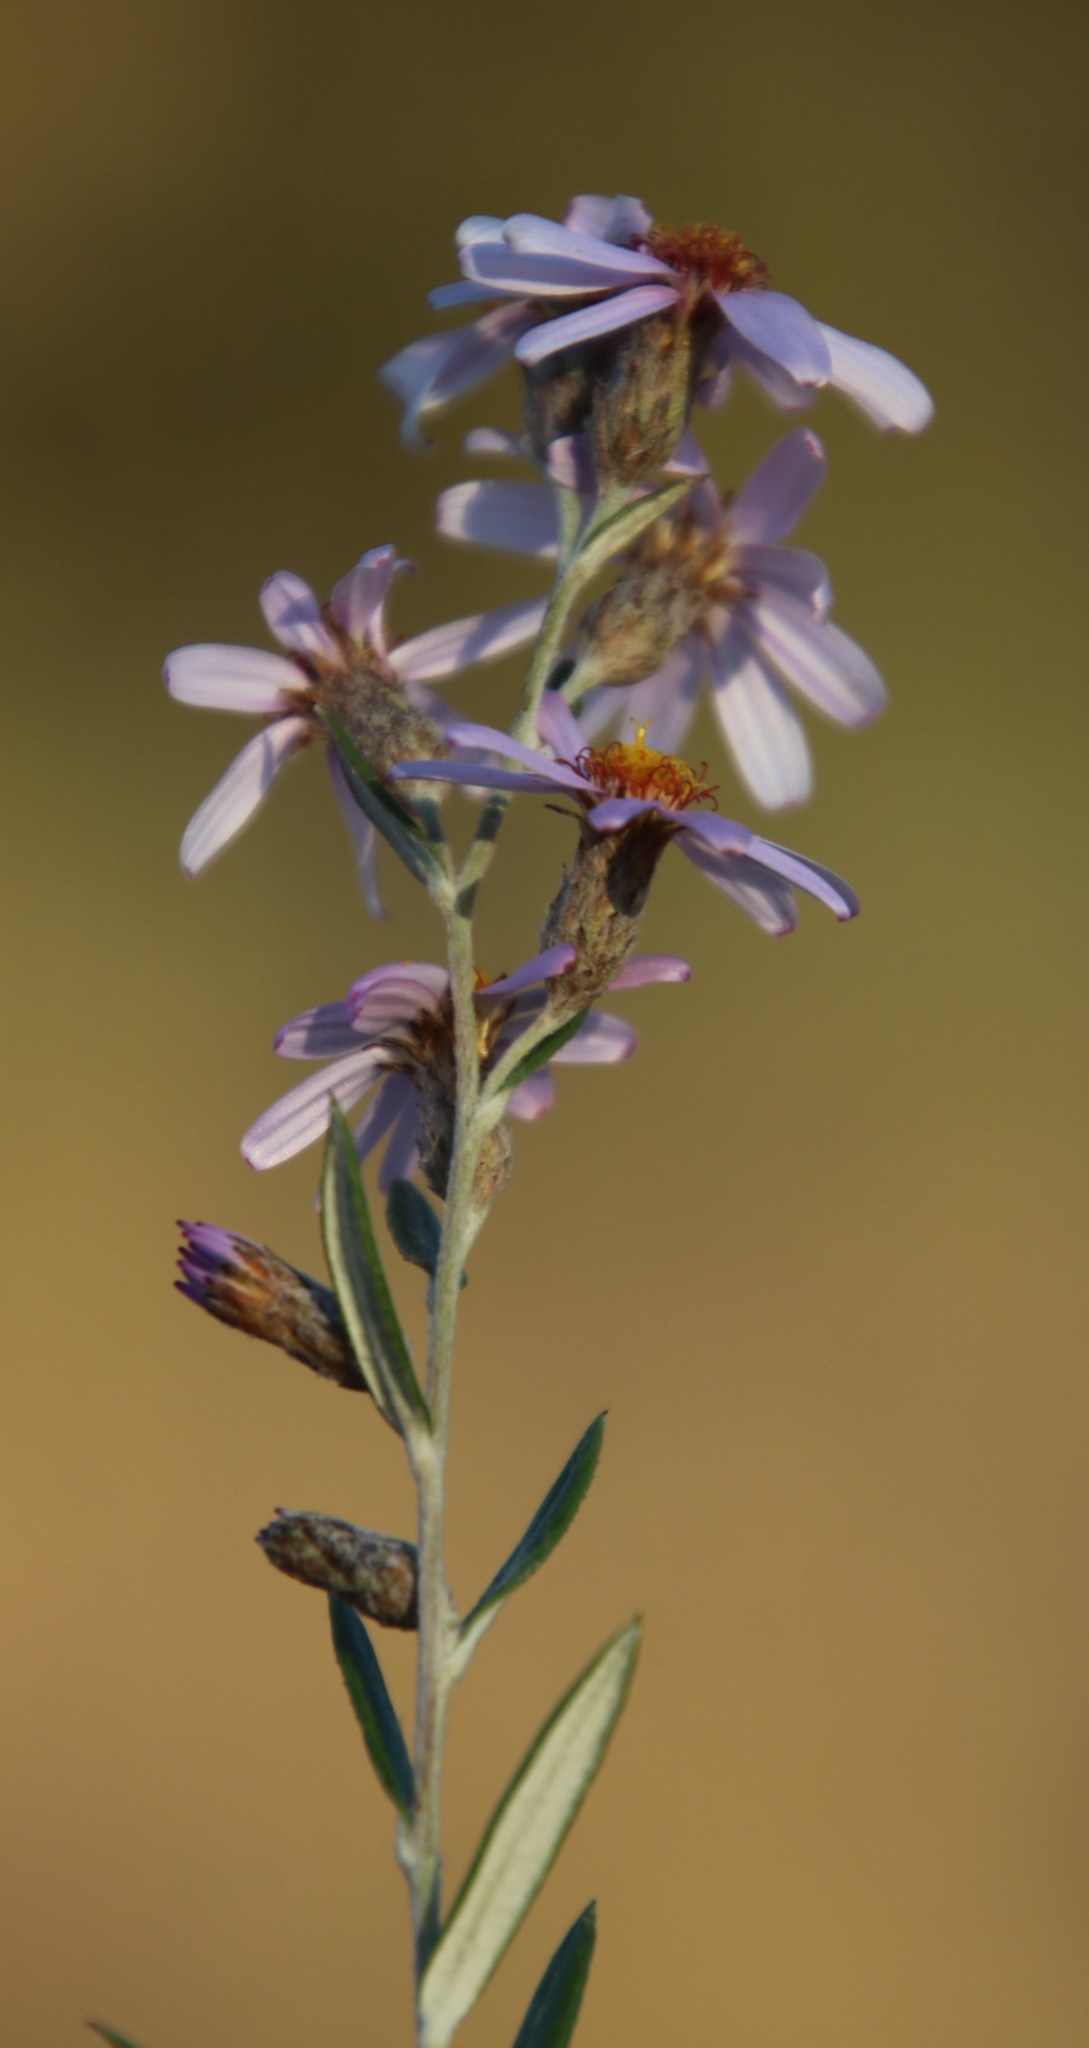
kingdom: Plantae
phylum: Tracheophyta
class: Magnoliopsida
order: Asterales
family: Asteraceae
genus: Athrixia
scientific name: Athrixia phylicoides
